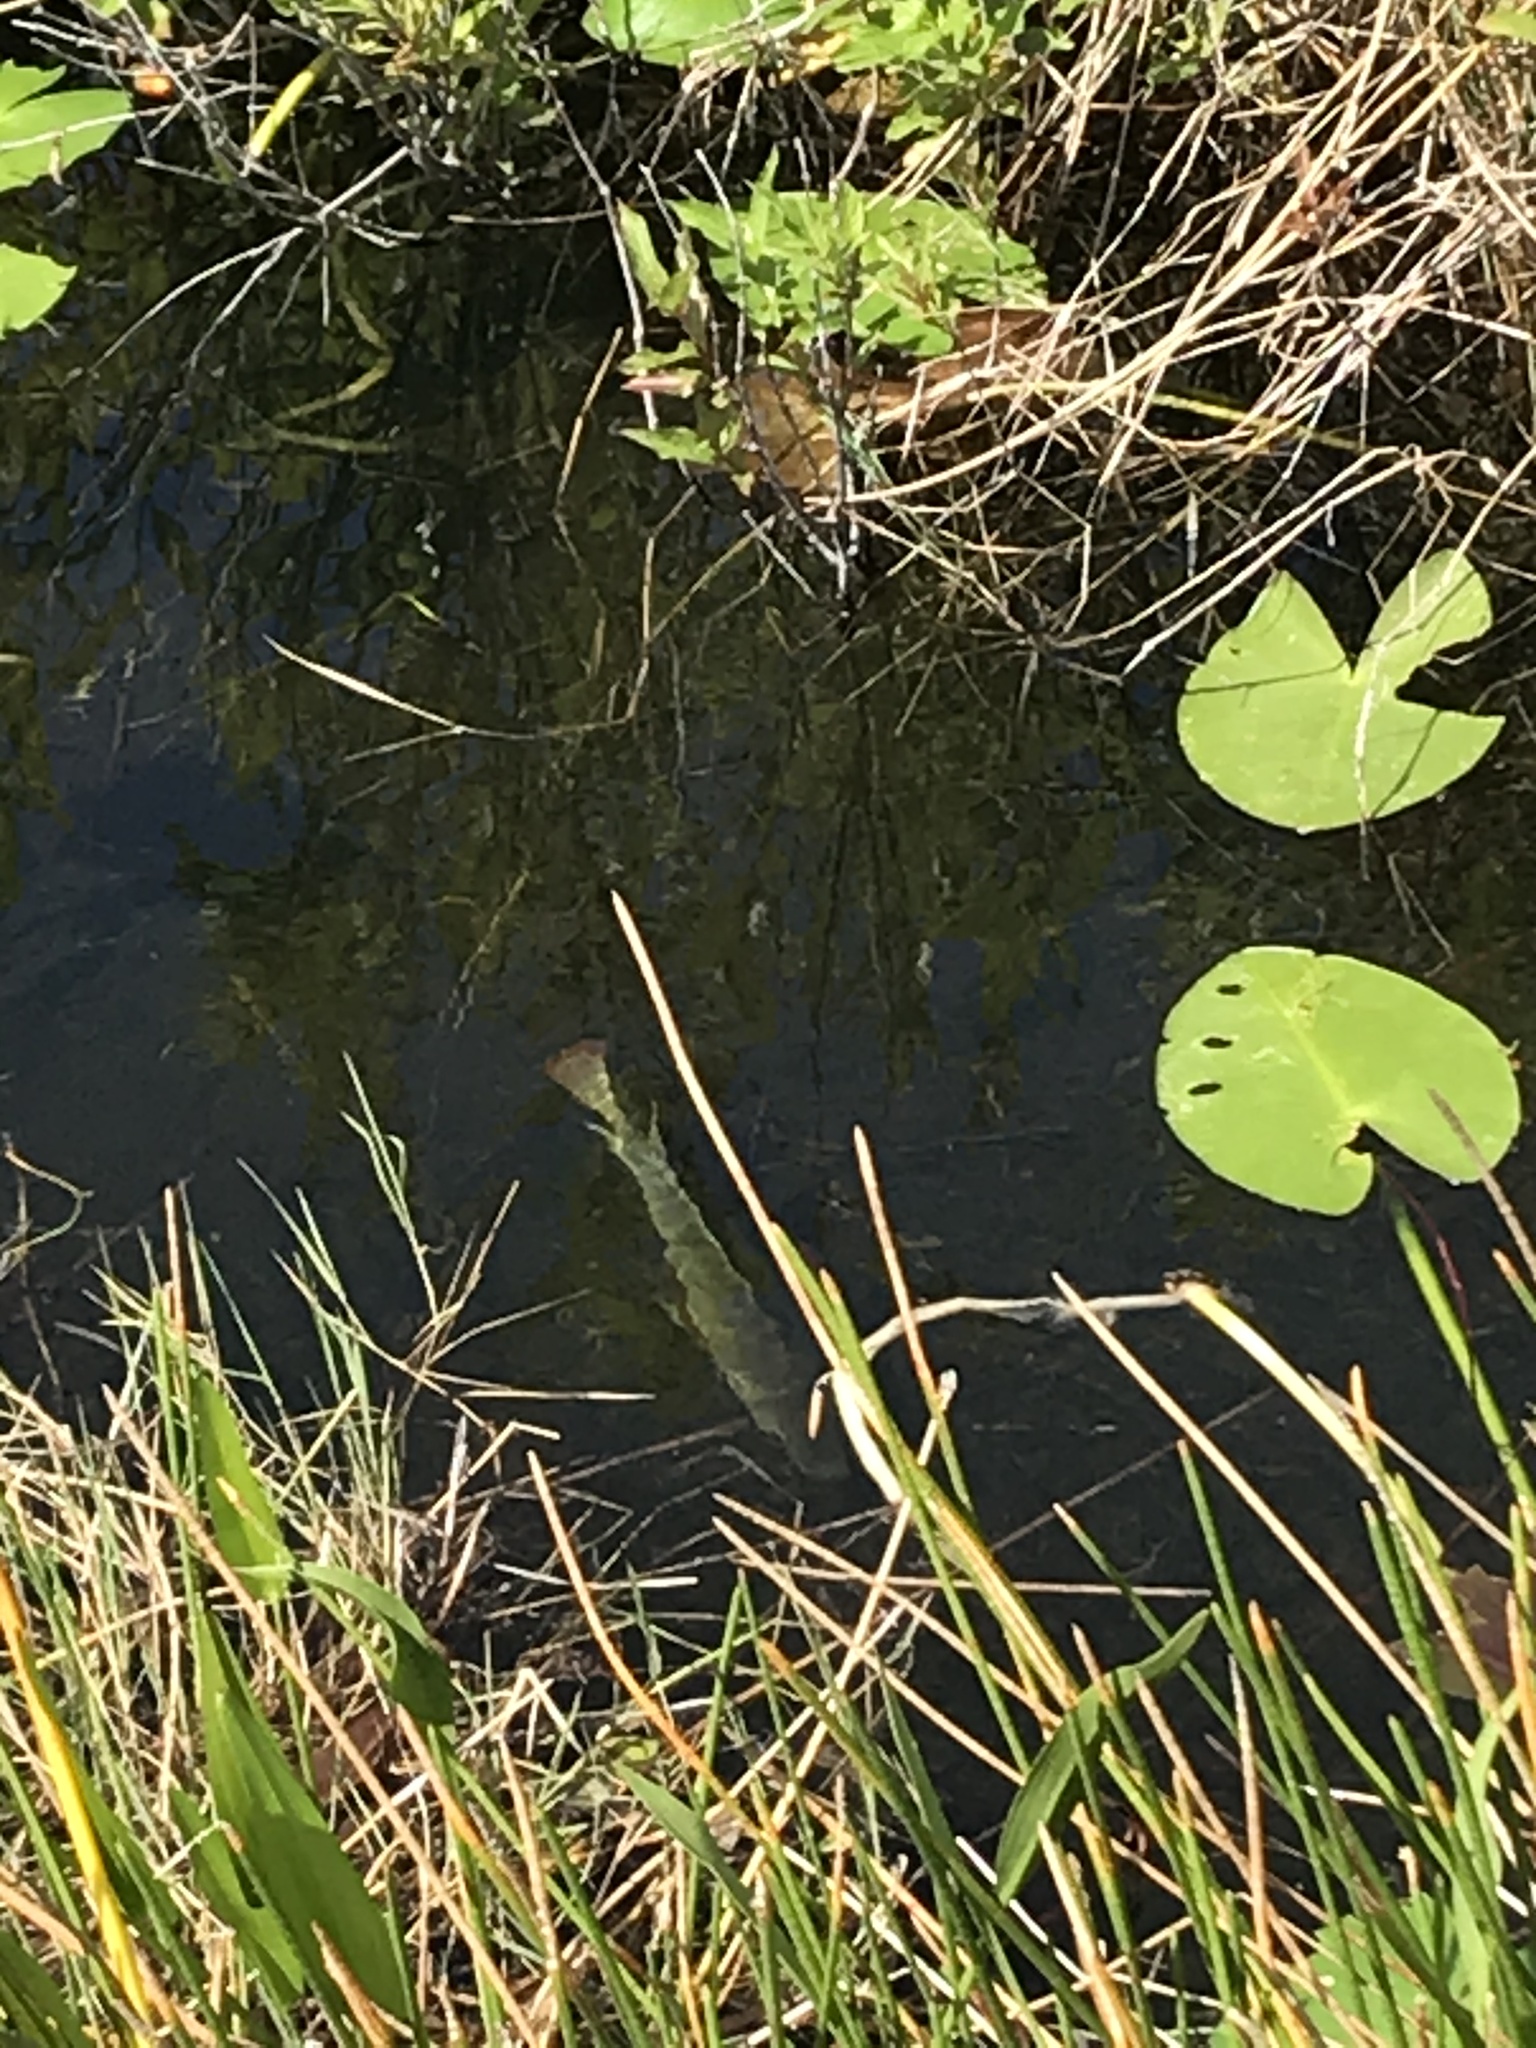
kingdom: Animalia
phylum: Chordata
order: Perciformes
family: Cichlidae
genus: Oreochromis
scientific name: Oreochromis aureus
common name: Blue tilapia
